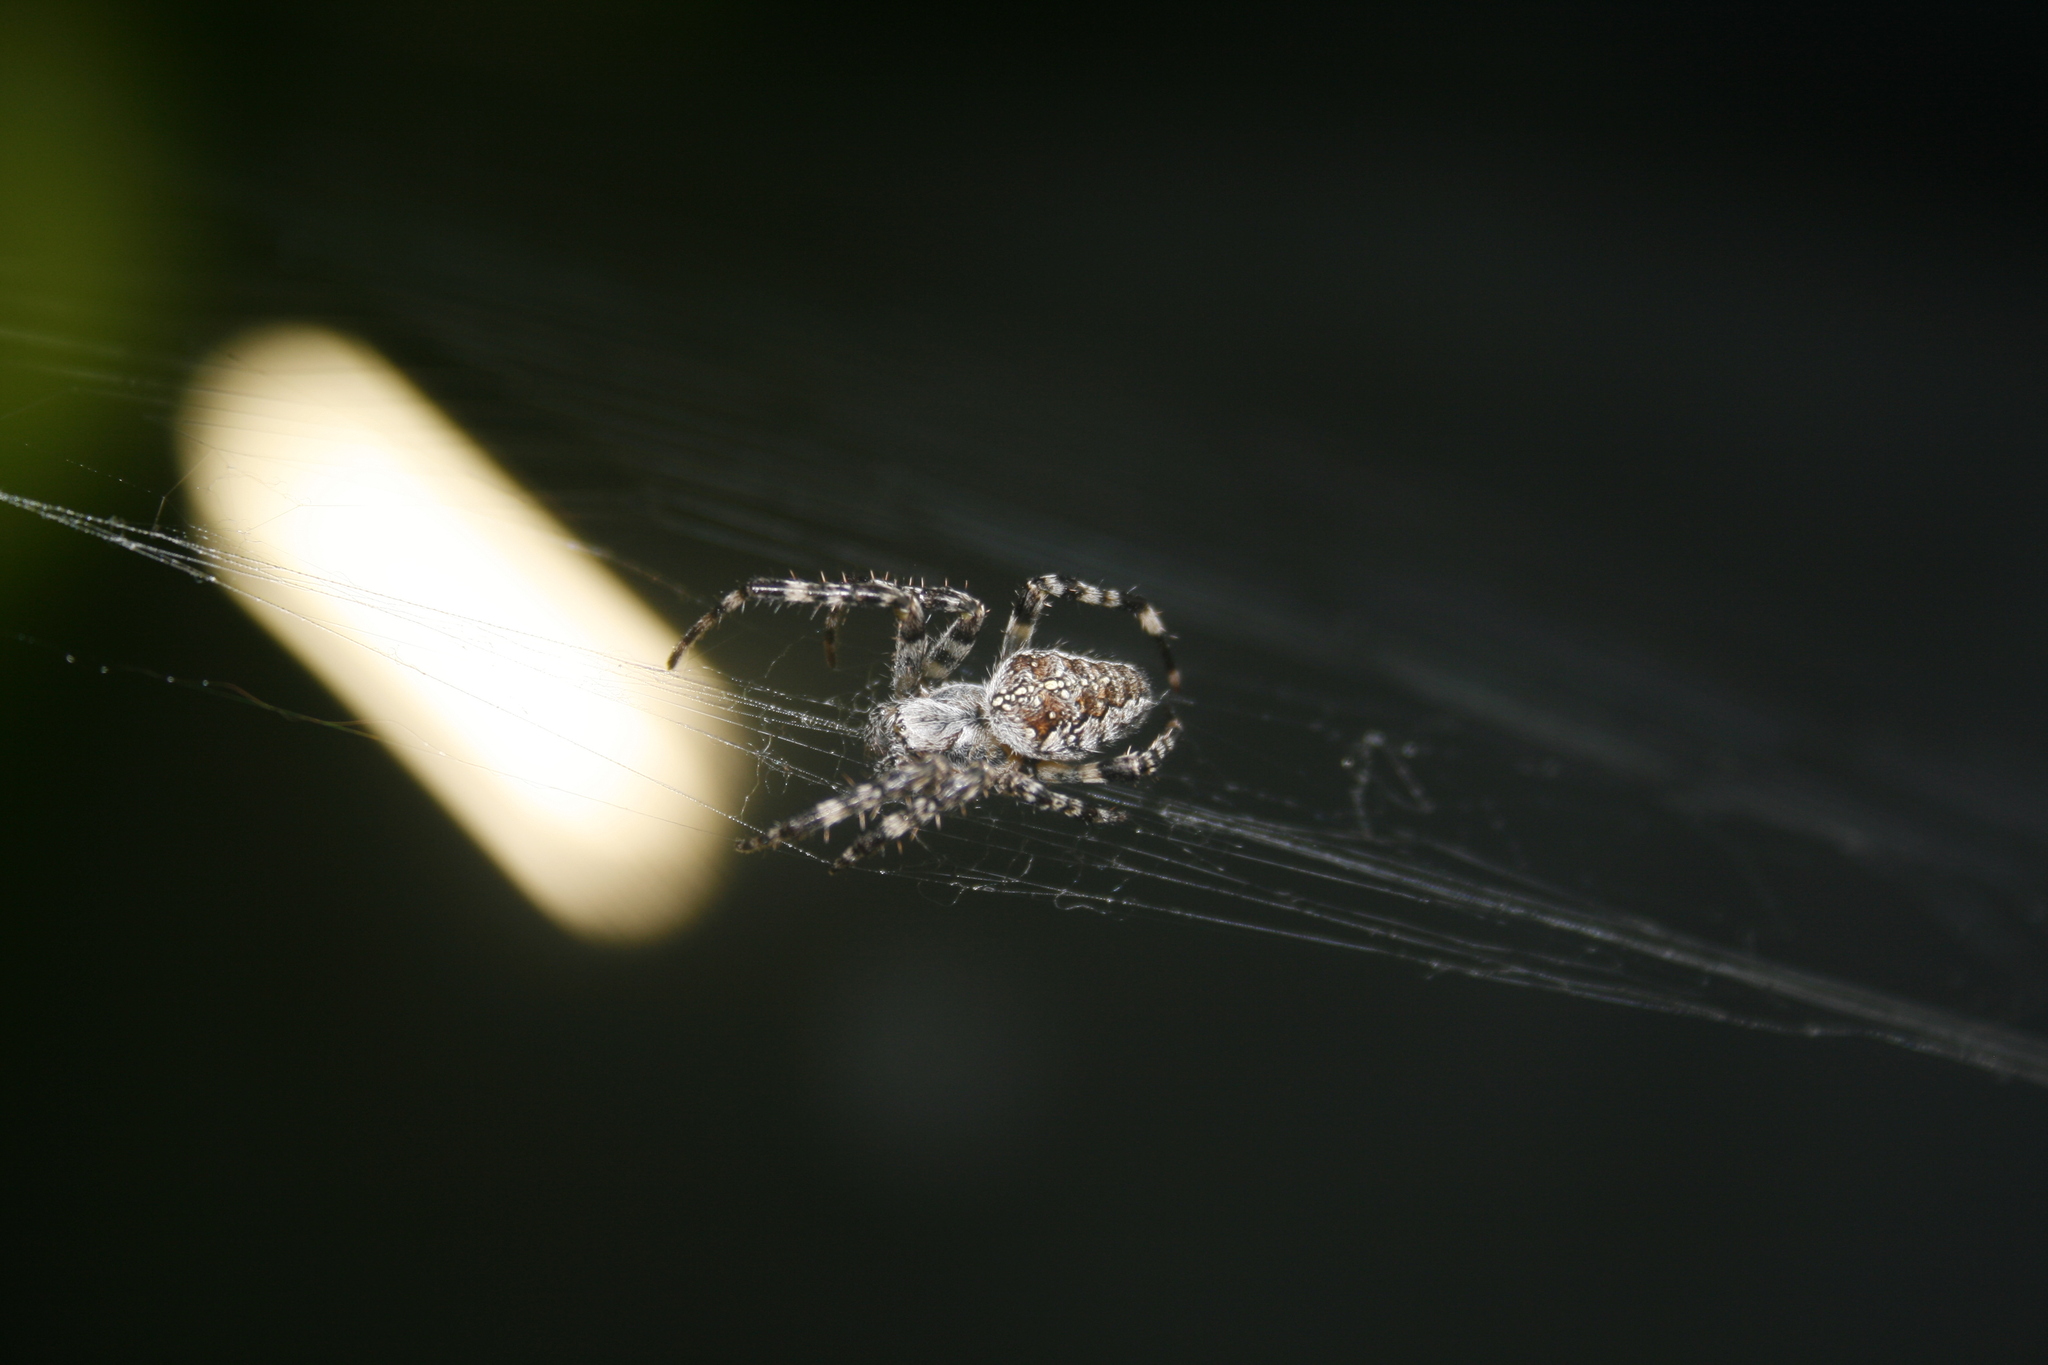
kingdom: Animalia
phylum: Arthropoda
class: Arachnida
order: Araneae
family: Araneidae
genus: Araneus
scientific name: Araneus diadematus
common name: Cross orbweaver
